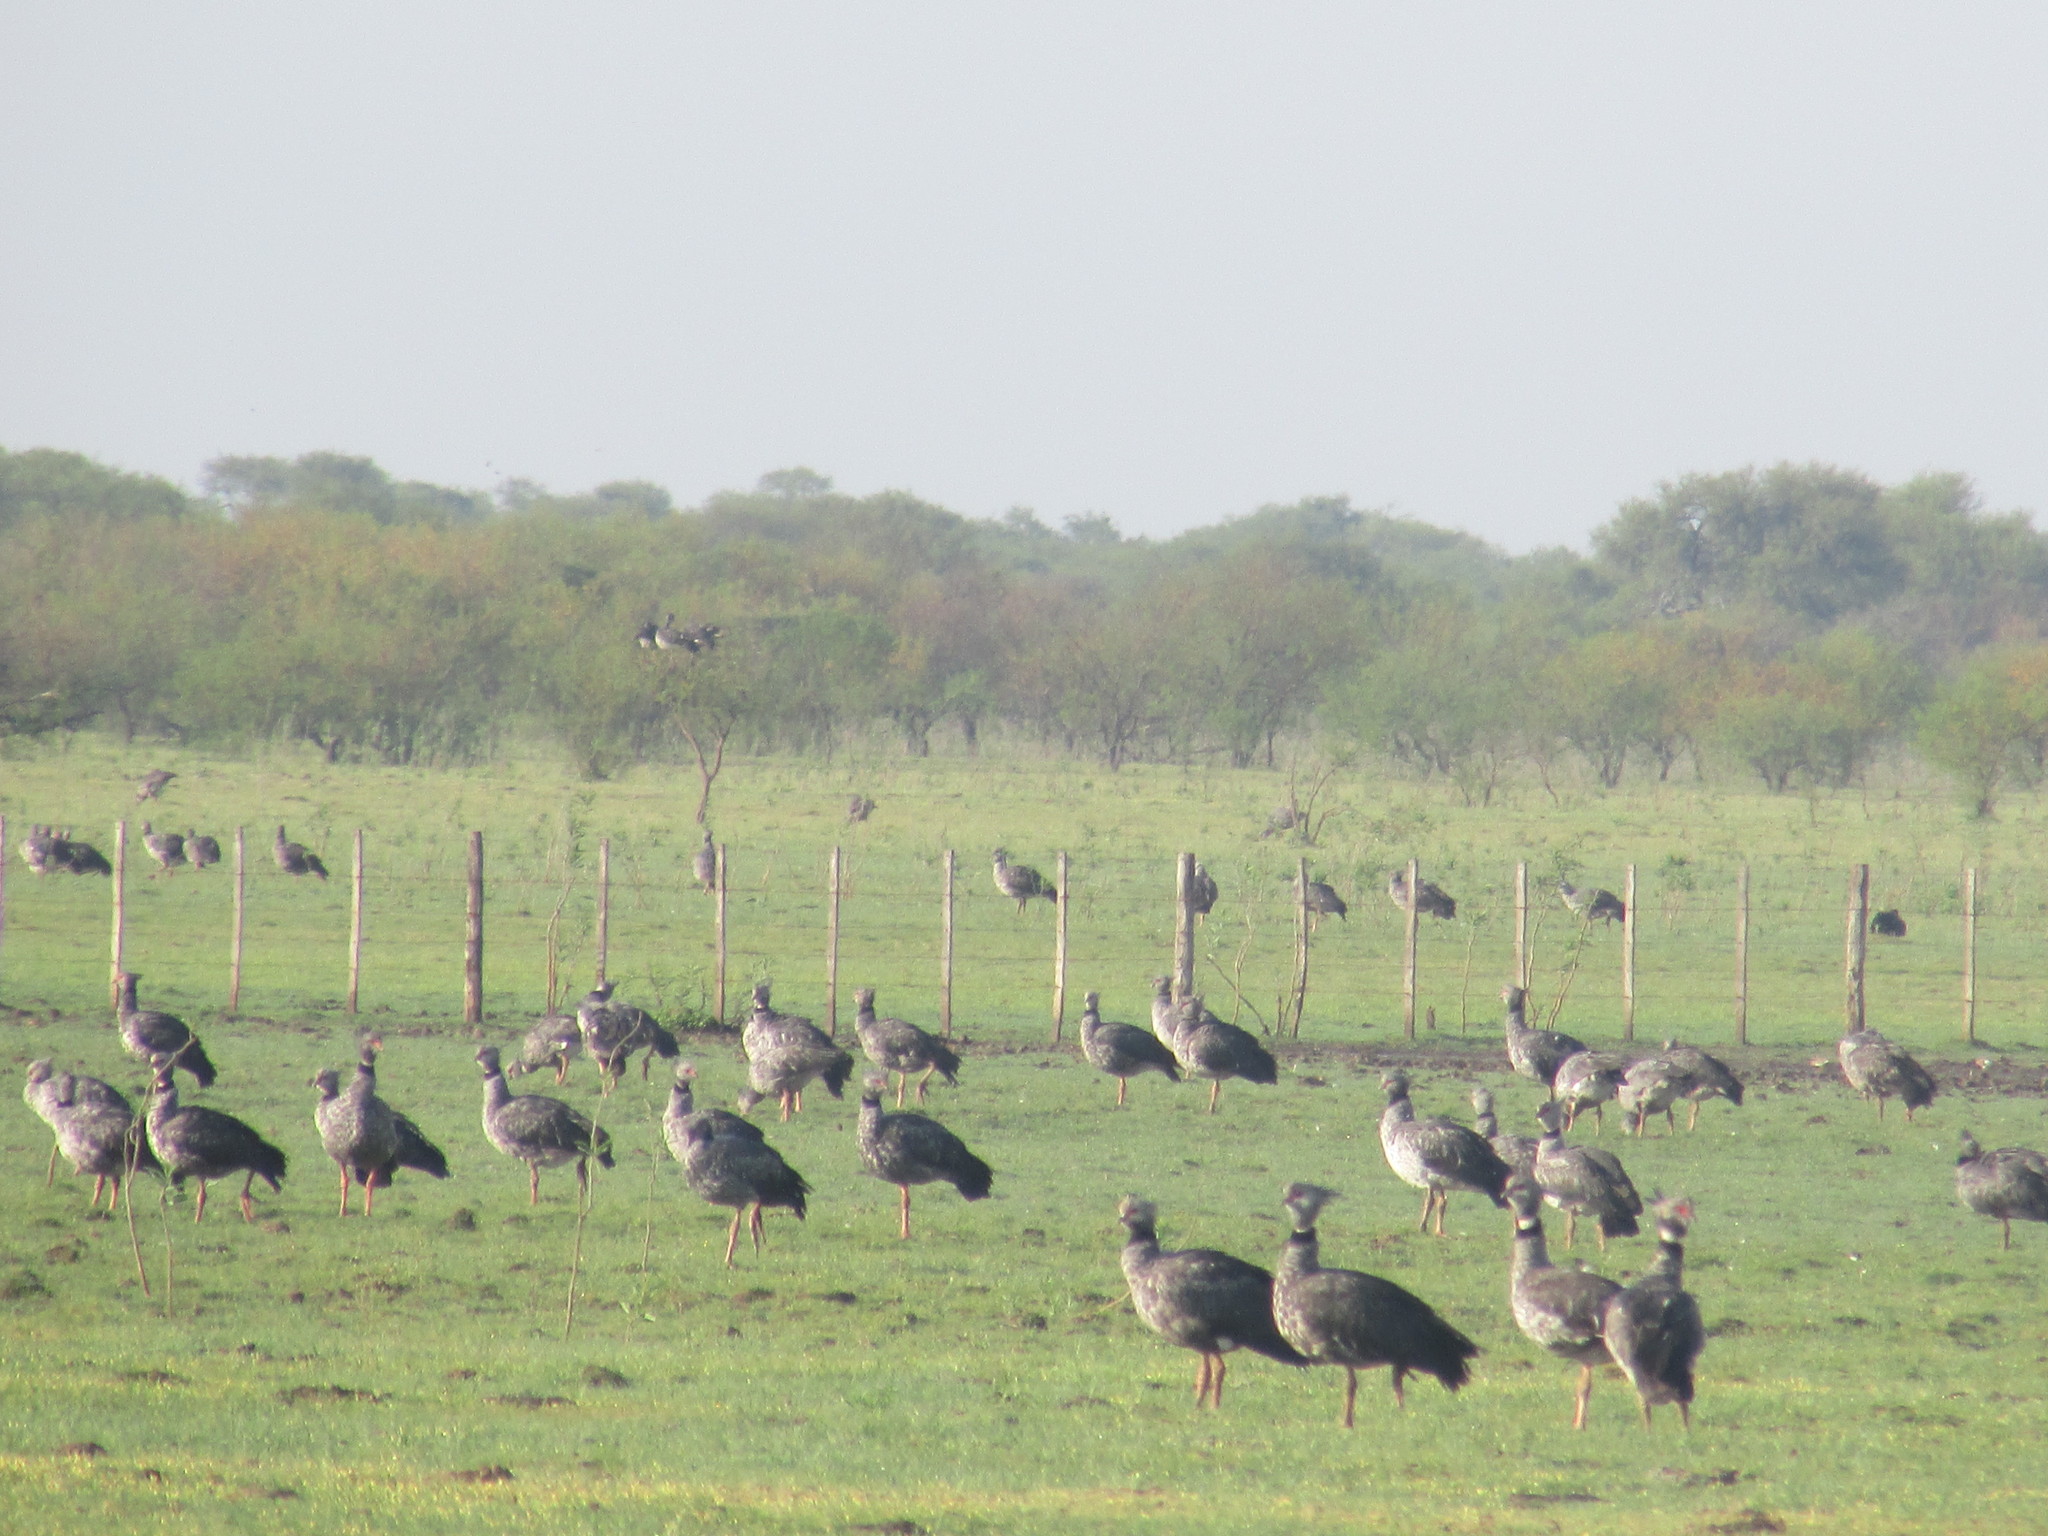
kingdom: Animalia
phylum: Chordata
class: Aves
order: Anseriformes
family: Anhimidae
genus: Chauna
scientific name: Chauna torquata
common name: Southern screamer
